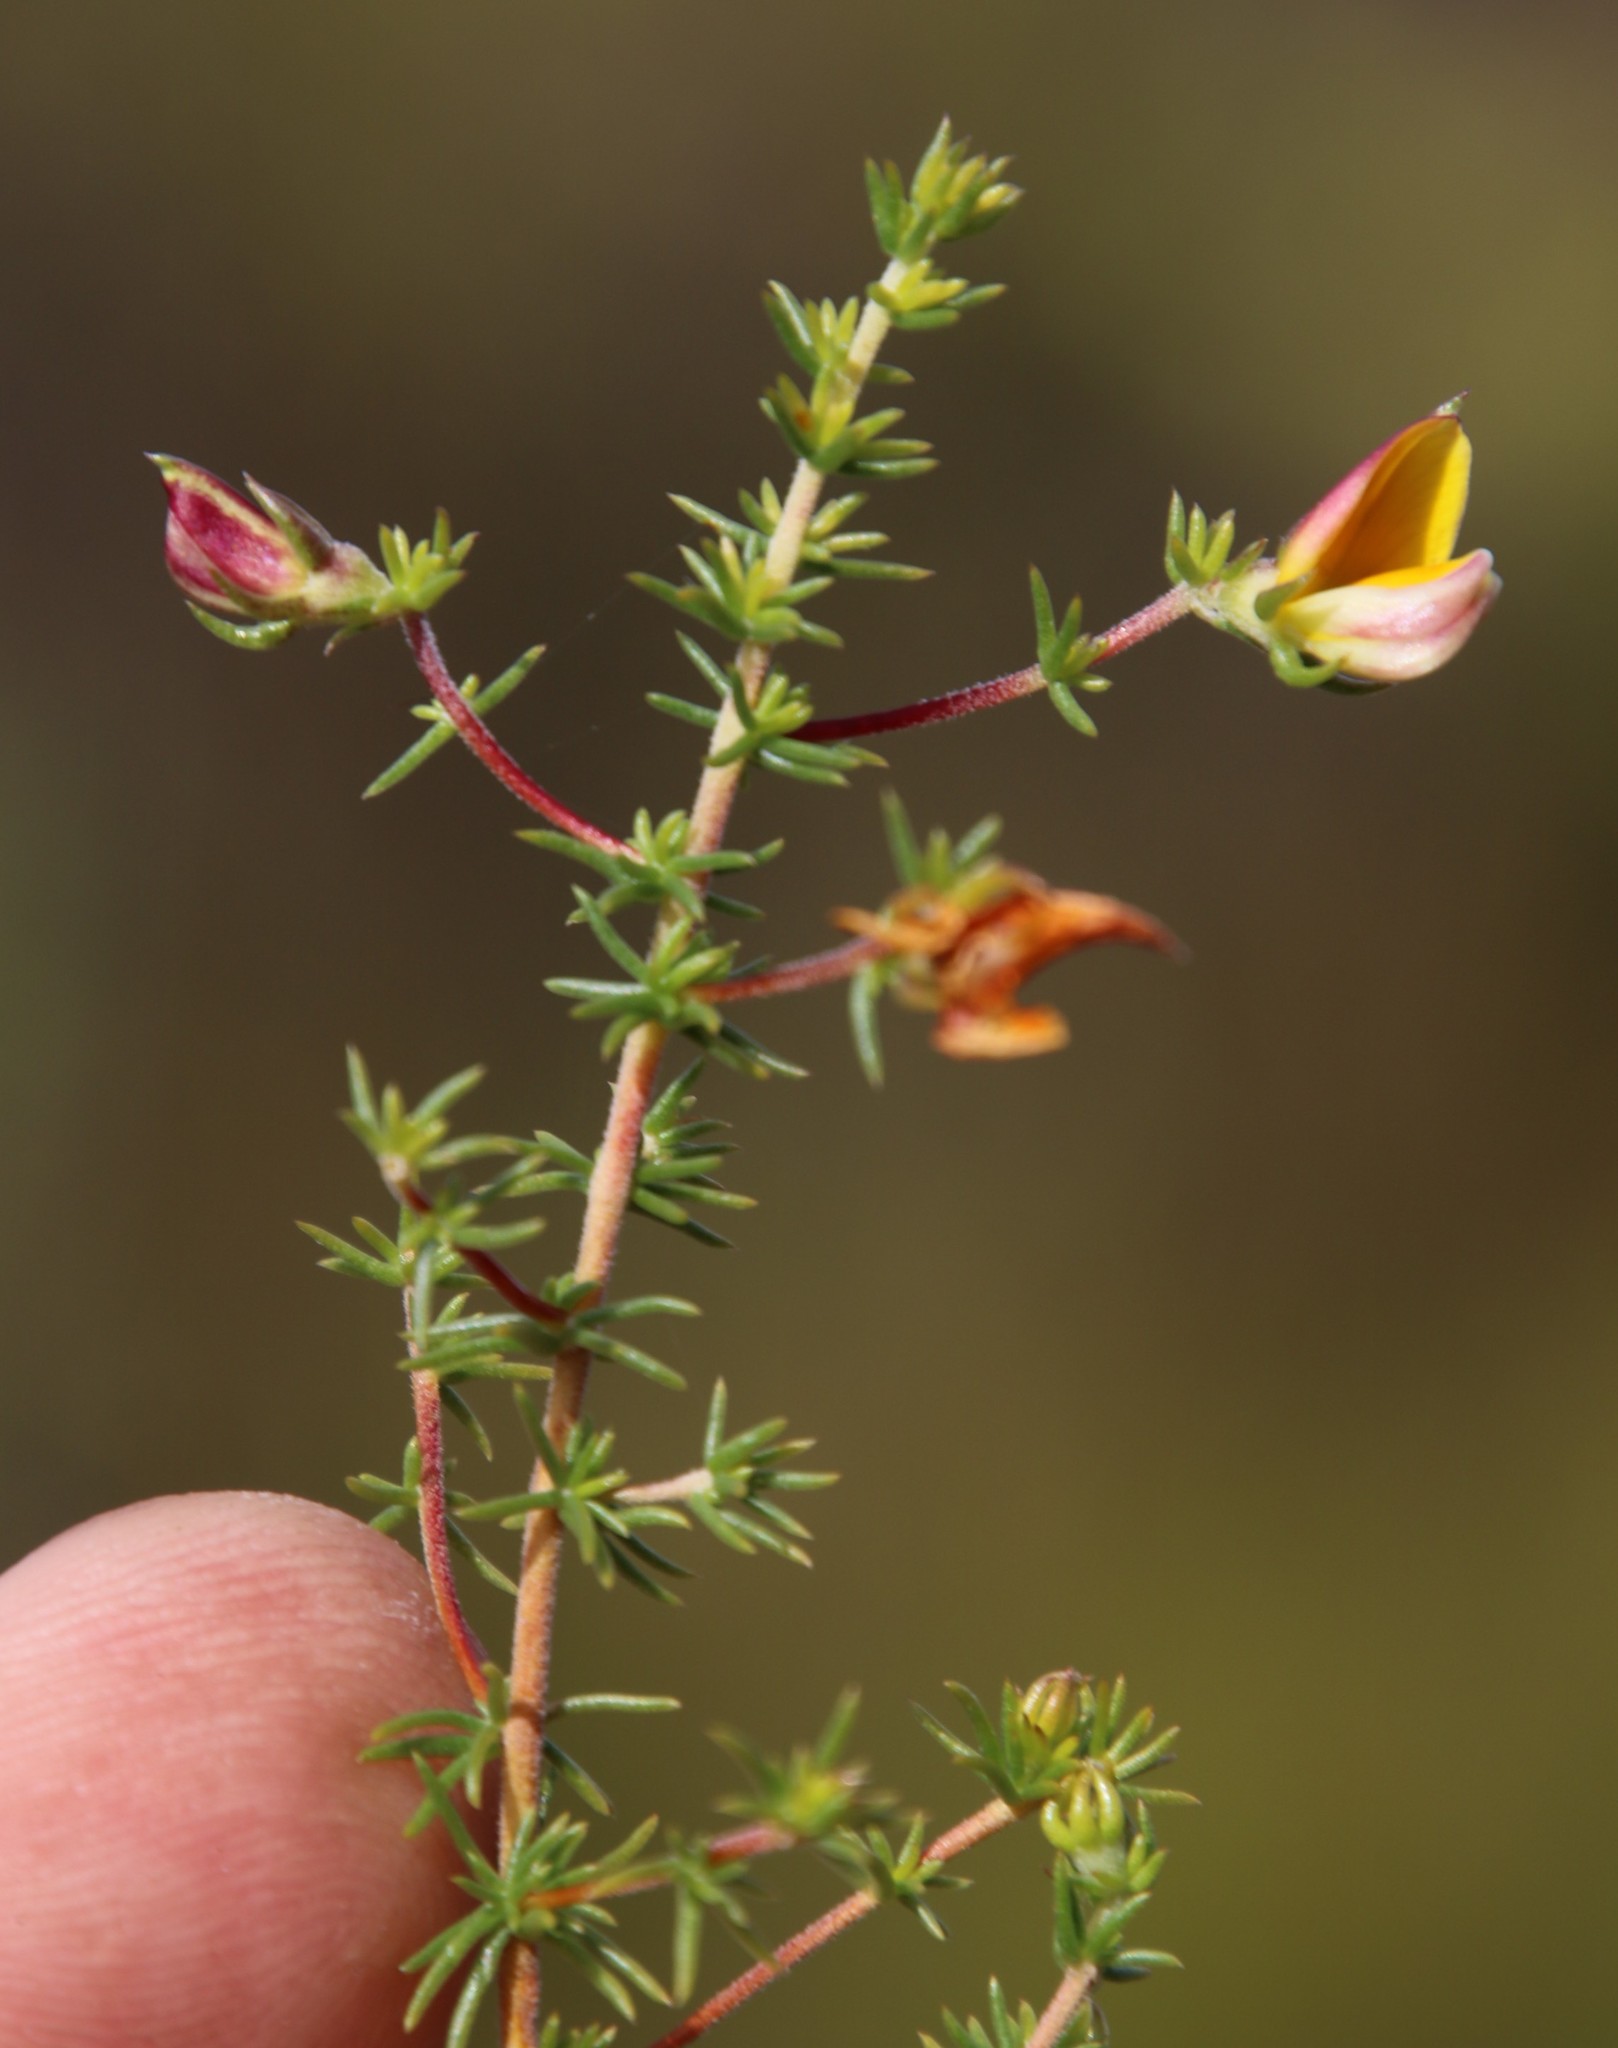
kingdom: Plantae
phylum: Tracheophyta
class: Magnoliopsida
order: Fabales
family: Fabaceae
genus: Aspalathus
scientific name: Aspalathus retroflexa
